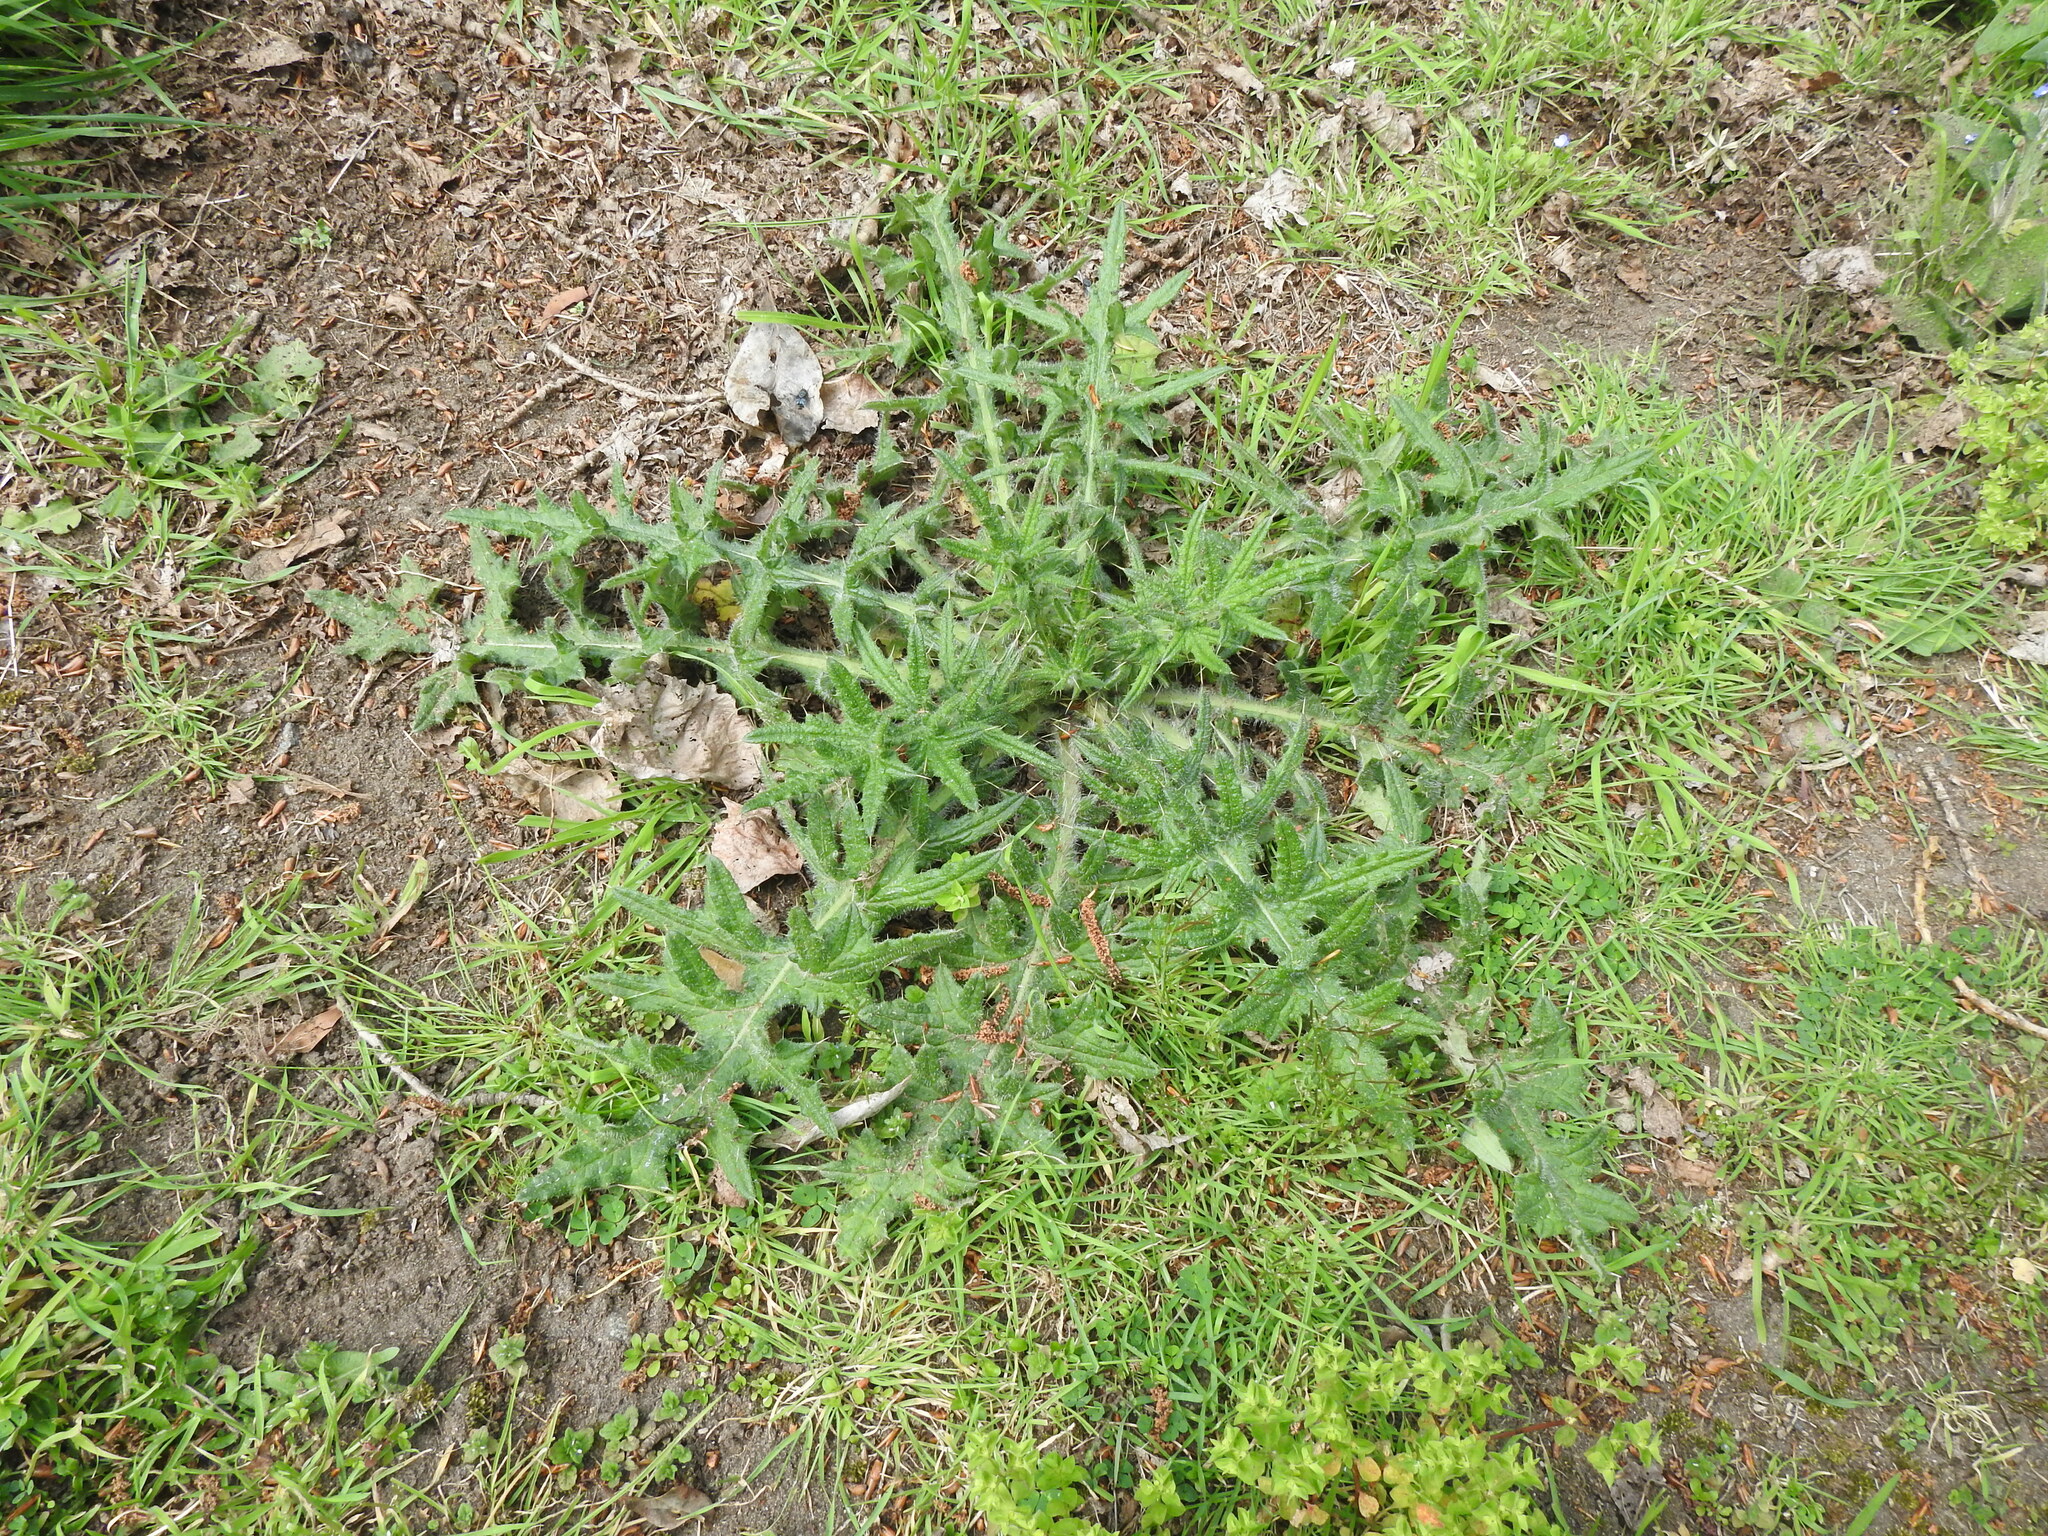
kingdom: Plantae
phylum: Tracheophyta
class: Magnoliopsida
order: Asterales
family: Asteraceae
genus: Cirsium
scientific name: Cirsium vulgare
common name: Bull thistle
